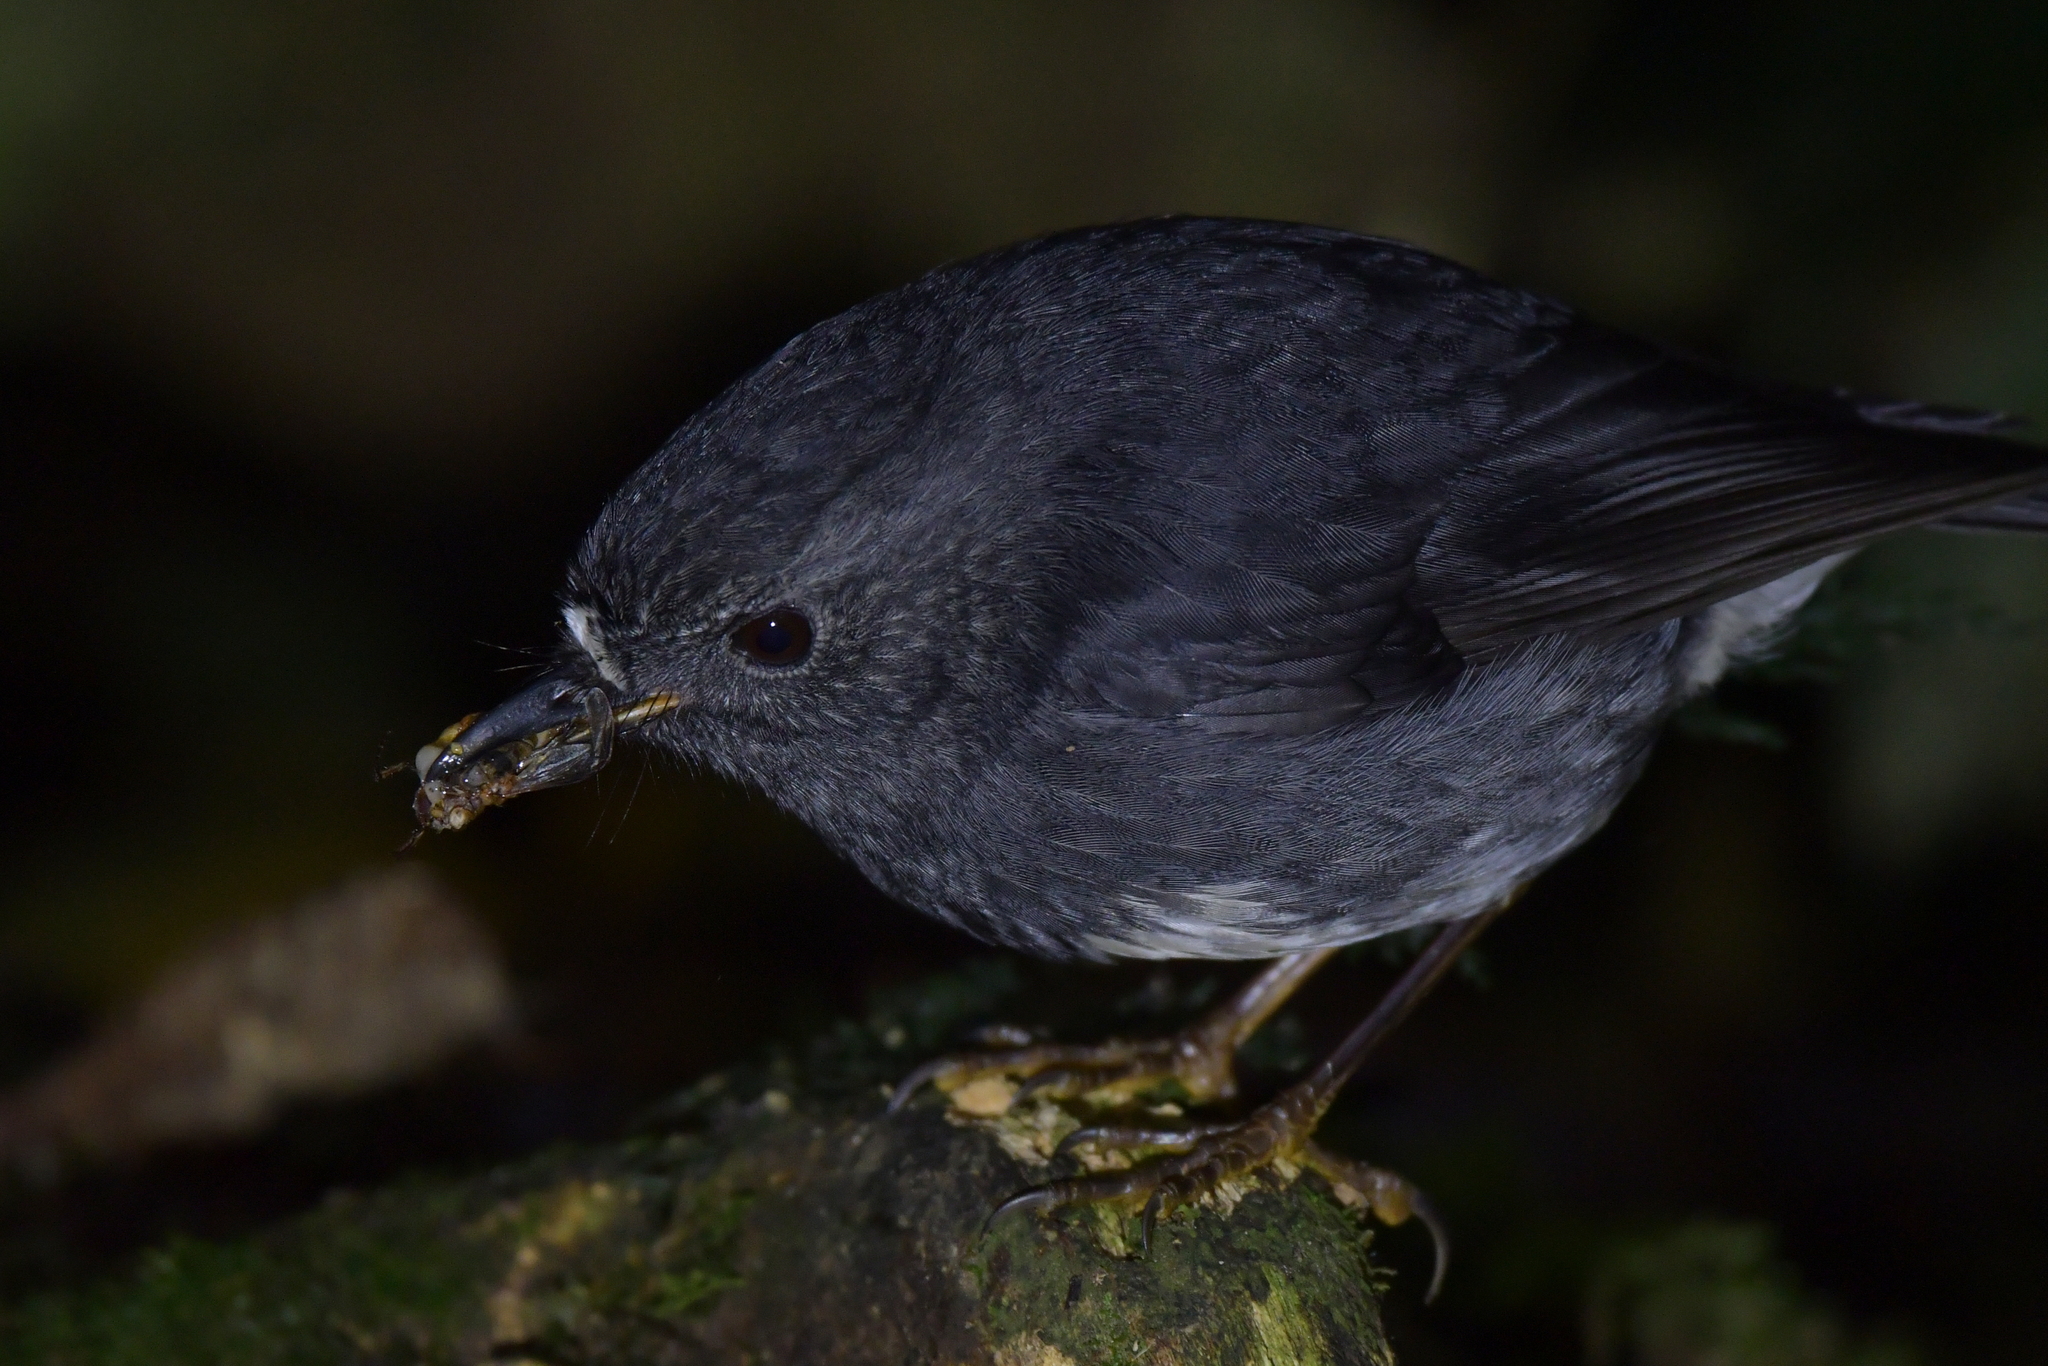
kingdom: Animalia
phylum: Chordata
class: Aves
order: Passeriformes
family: Petroicidae
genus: Petroica
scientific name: Petroica australis
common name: New zealand robin
